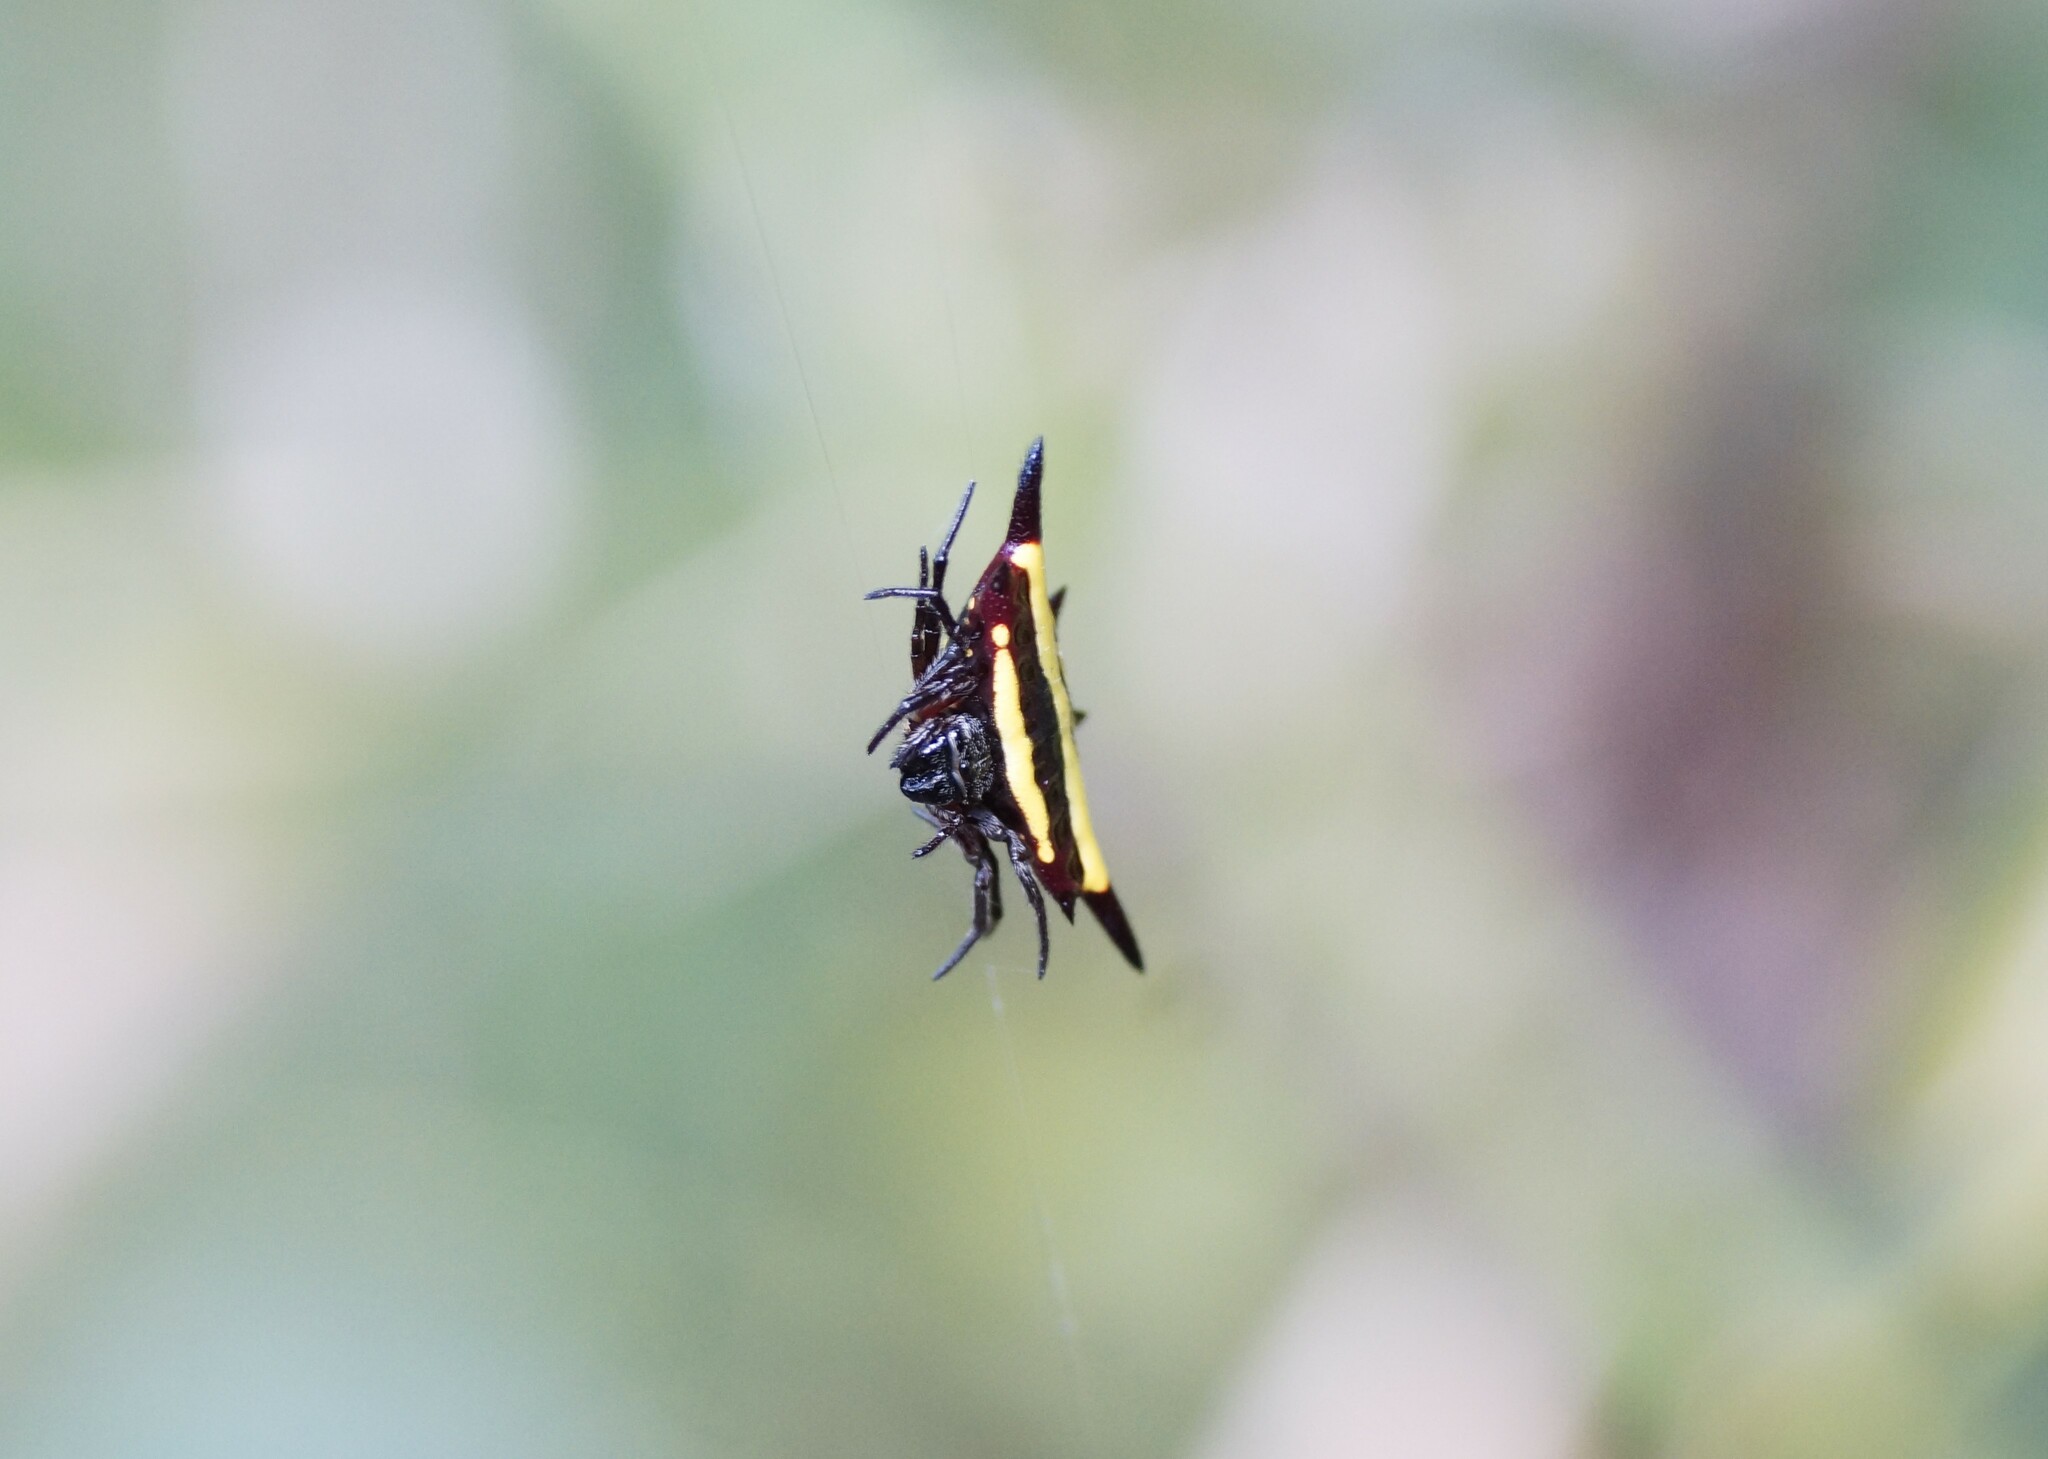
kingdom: Animalia
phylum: Arthropoda
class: Arachnida
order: Araneae
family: Araneidae
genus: Gasteracantha
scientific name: Gasteracantha fornicata
